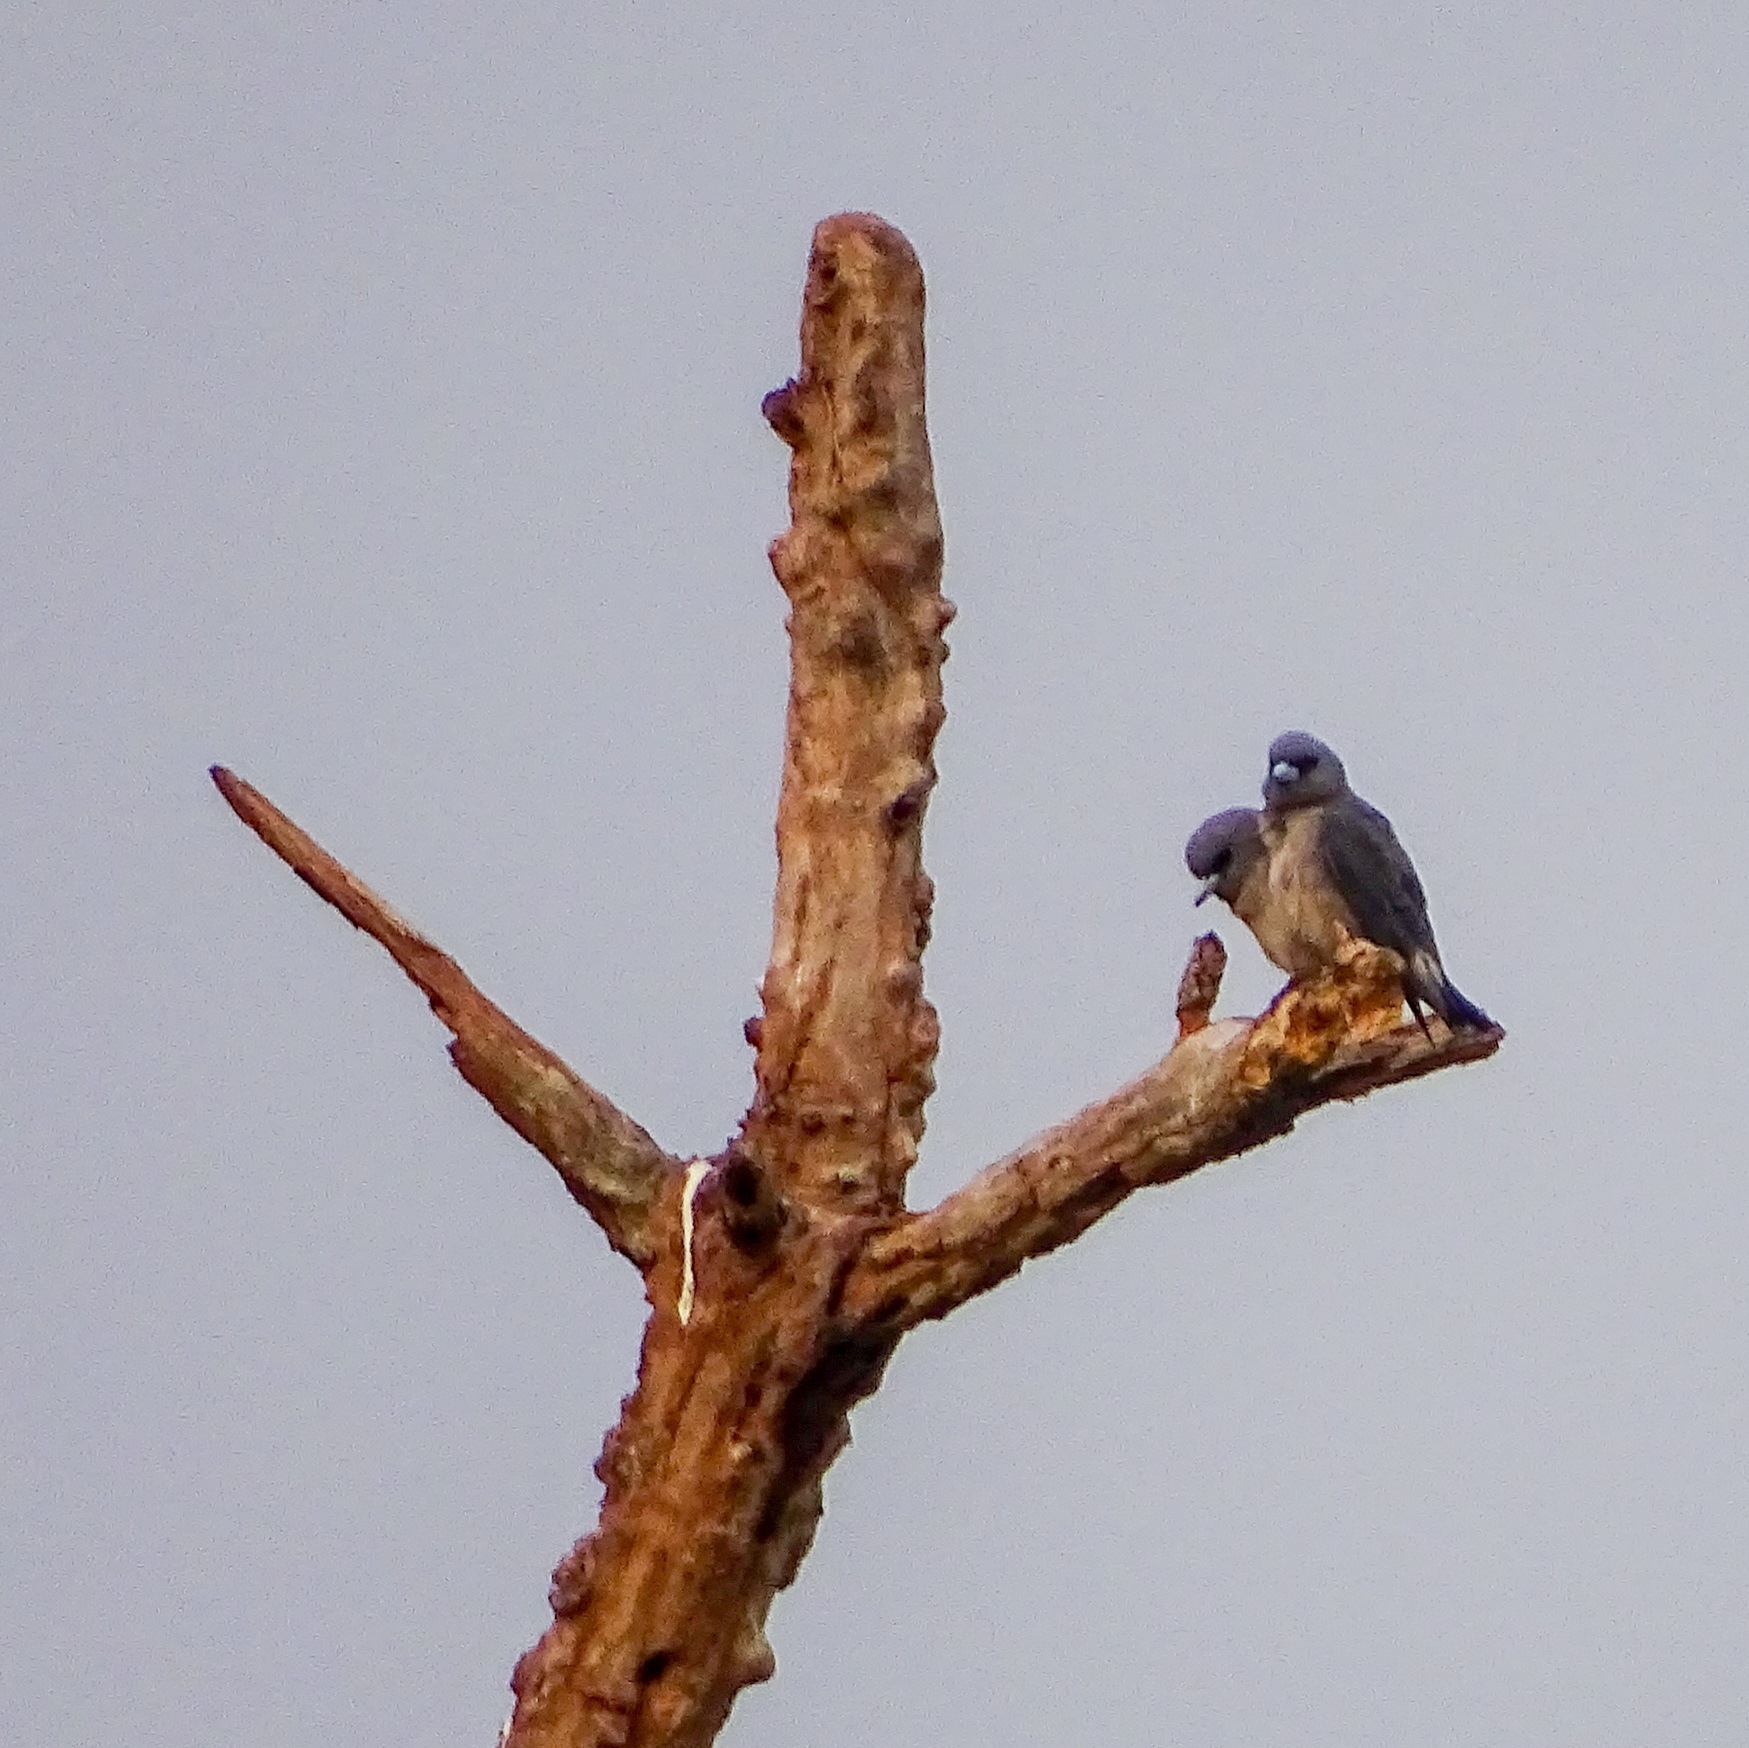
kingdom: Animalia
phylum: Chordata
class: Aves
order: Passeriformes
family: Artamidae
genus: Artamus
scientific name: Artamus fuscus
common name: Ashy woodswallow
